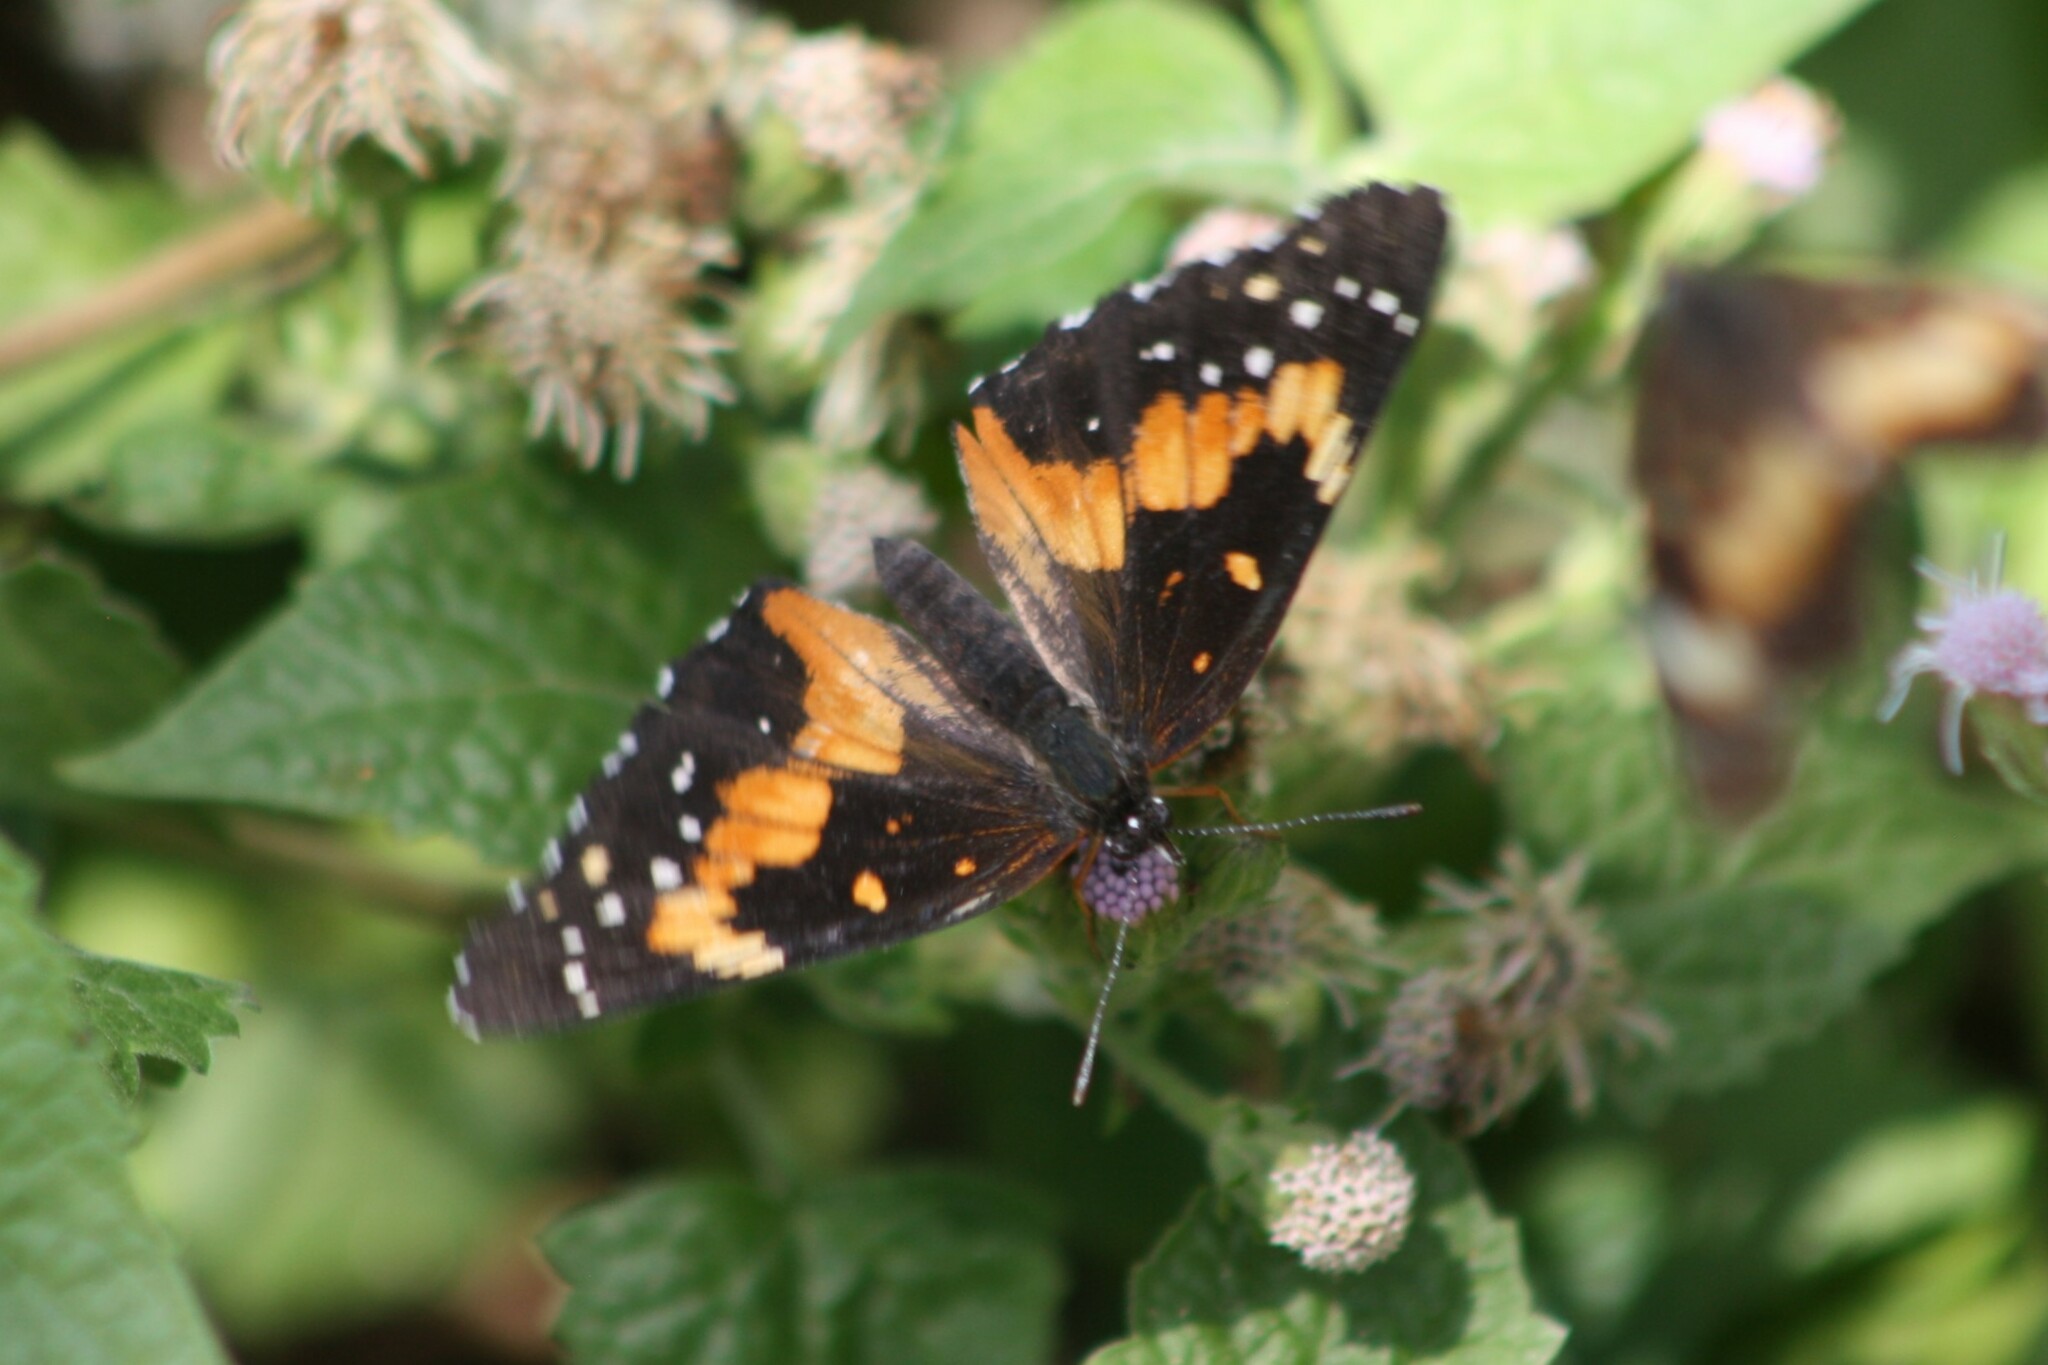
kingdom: Animalia
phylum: Arthropoda
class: Insecta
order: Lepidoptera
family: Nymphalidae
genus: Chlosyne
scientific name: Chlosyne lacinia
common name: Bordered patch
